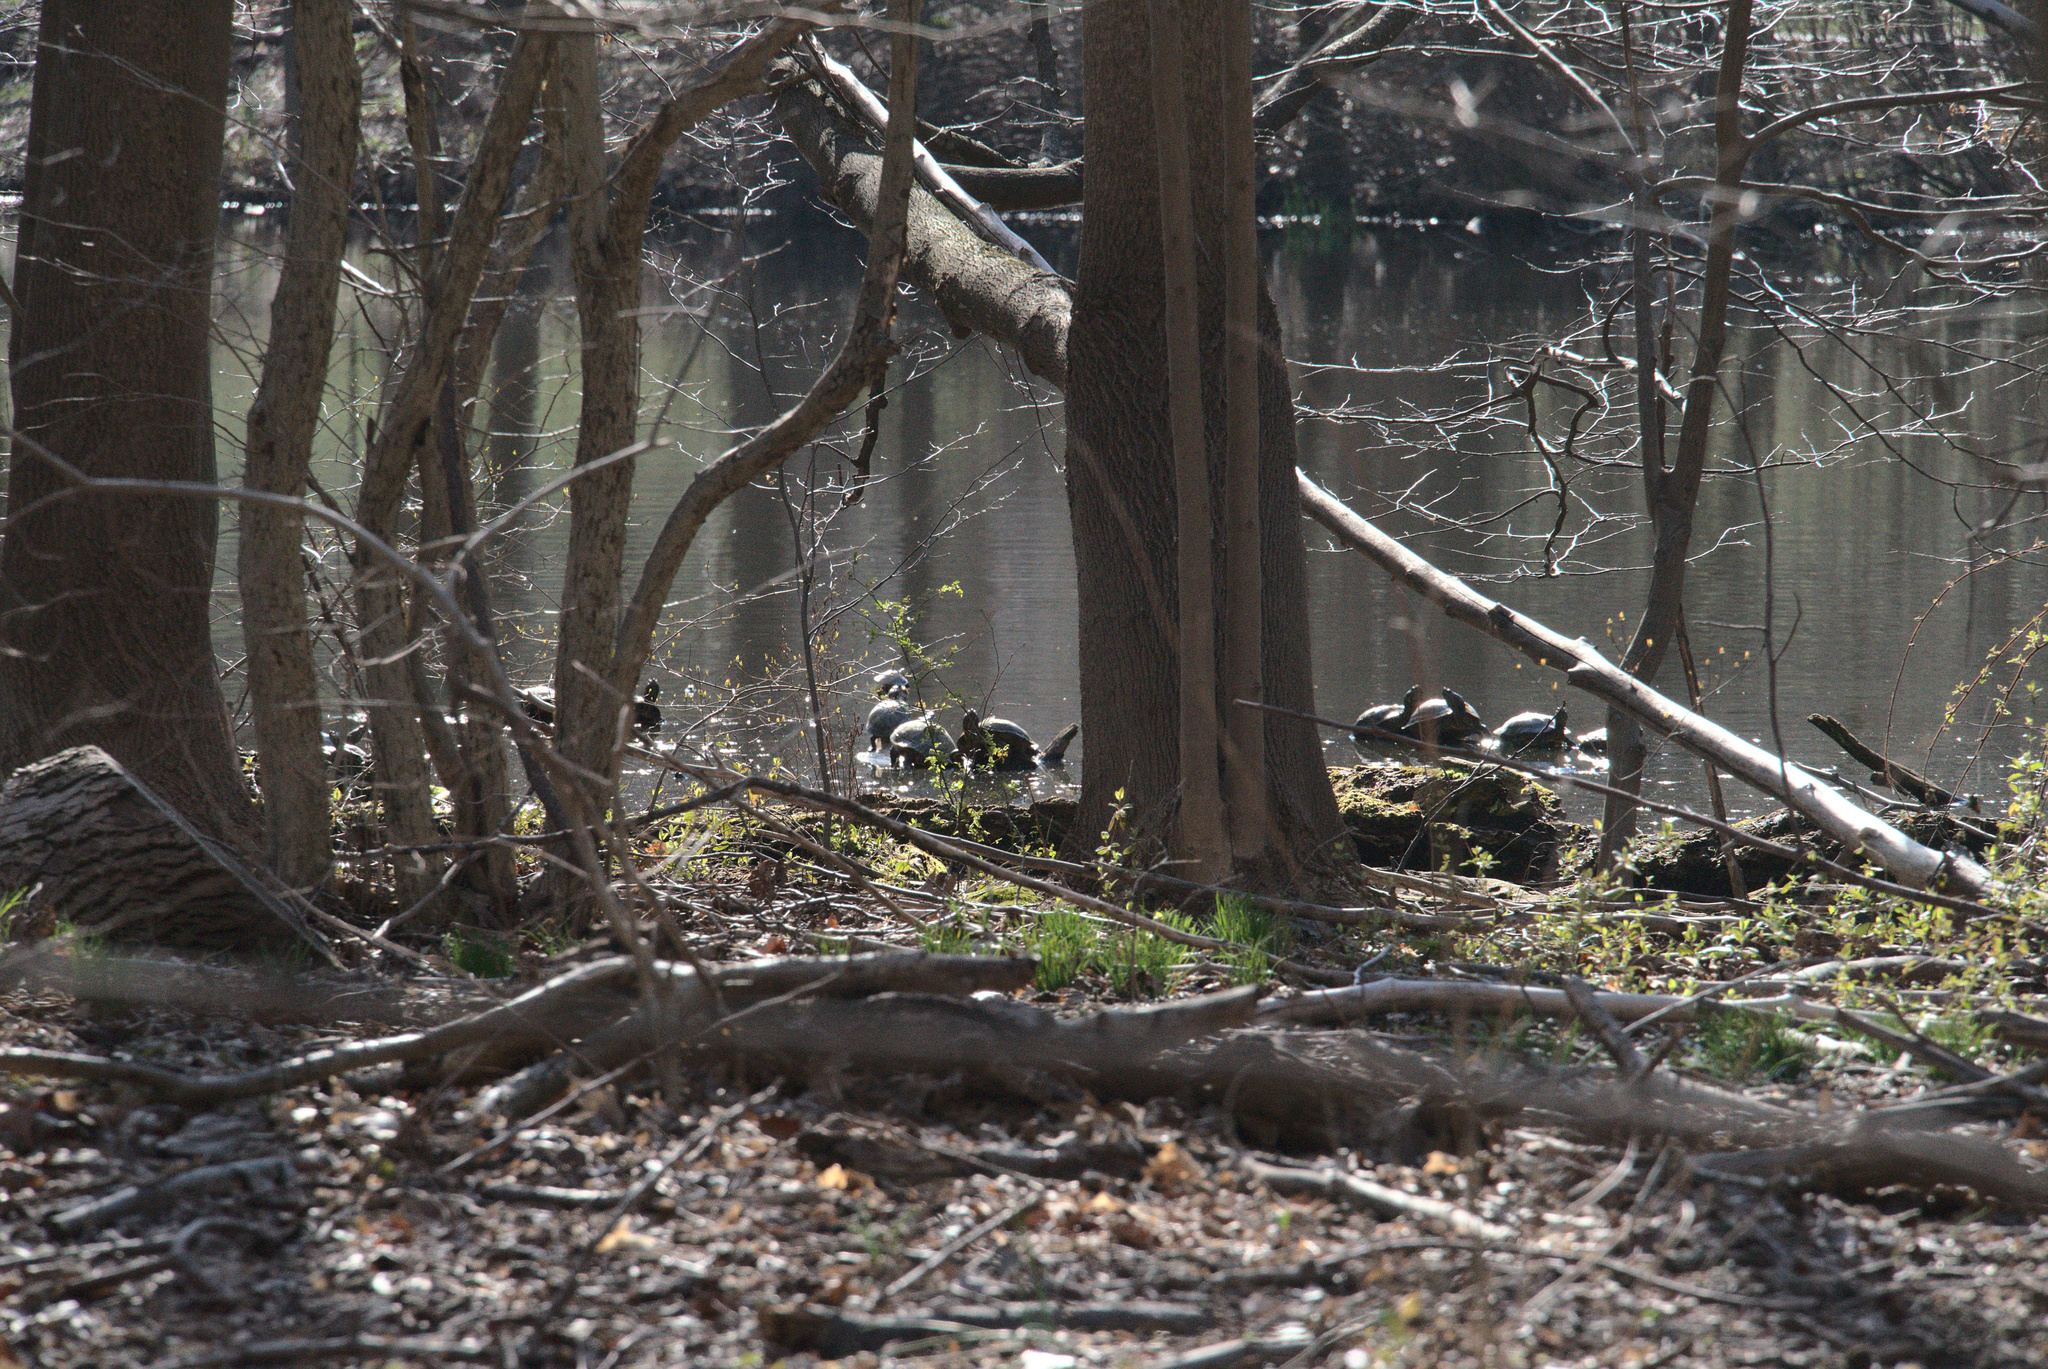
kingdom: Animalia
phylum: Chordata
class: Testudines
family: Emydidae
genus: Trachemys
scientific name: Trachemys scripta
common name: Slider
